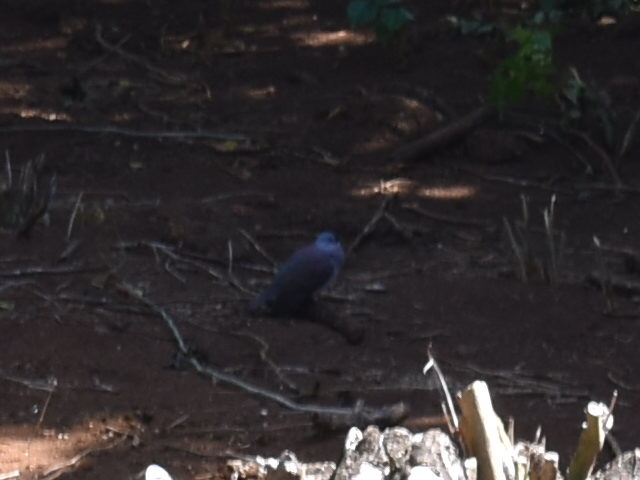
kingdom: Animalia
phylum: Chordata
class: Aves
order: Columbiformes
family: Columbidae
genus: Nesoenas
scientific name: Nesoenas picturatus
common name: Malagasy turtle dove
